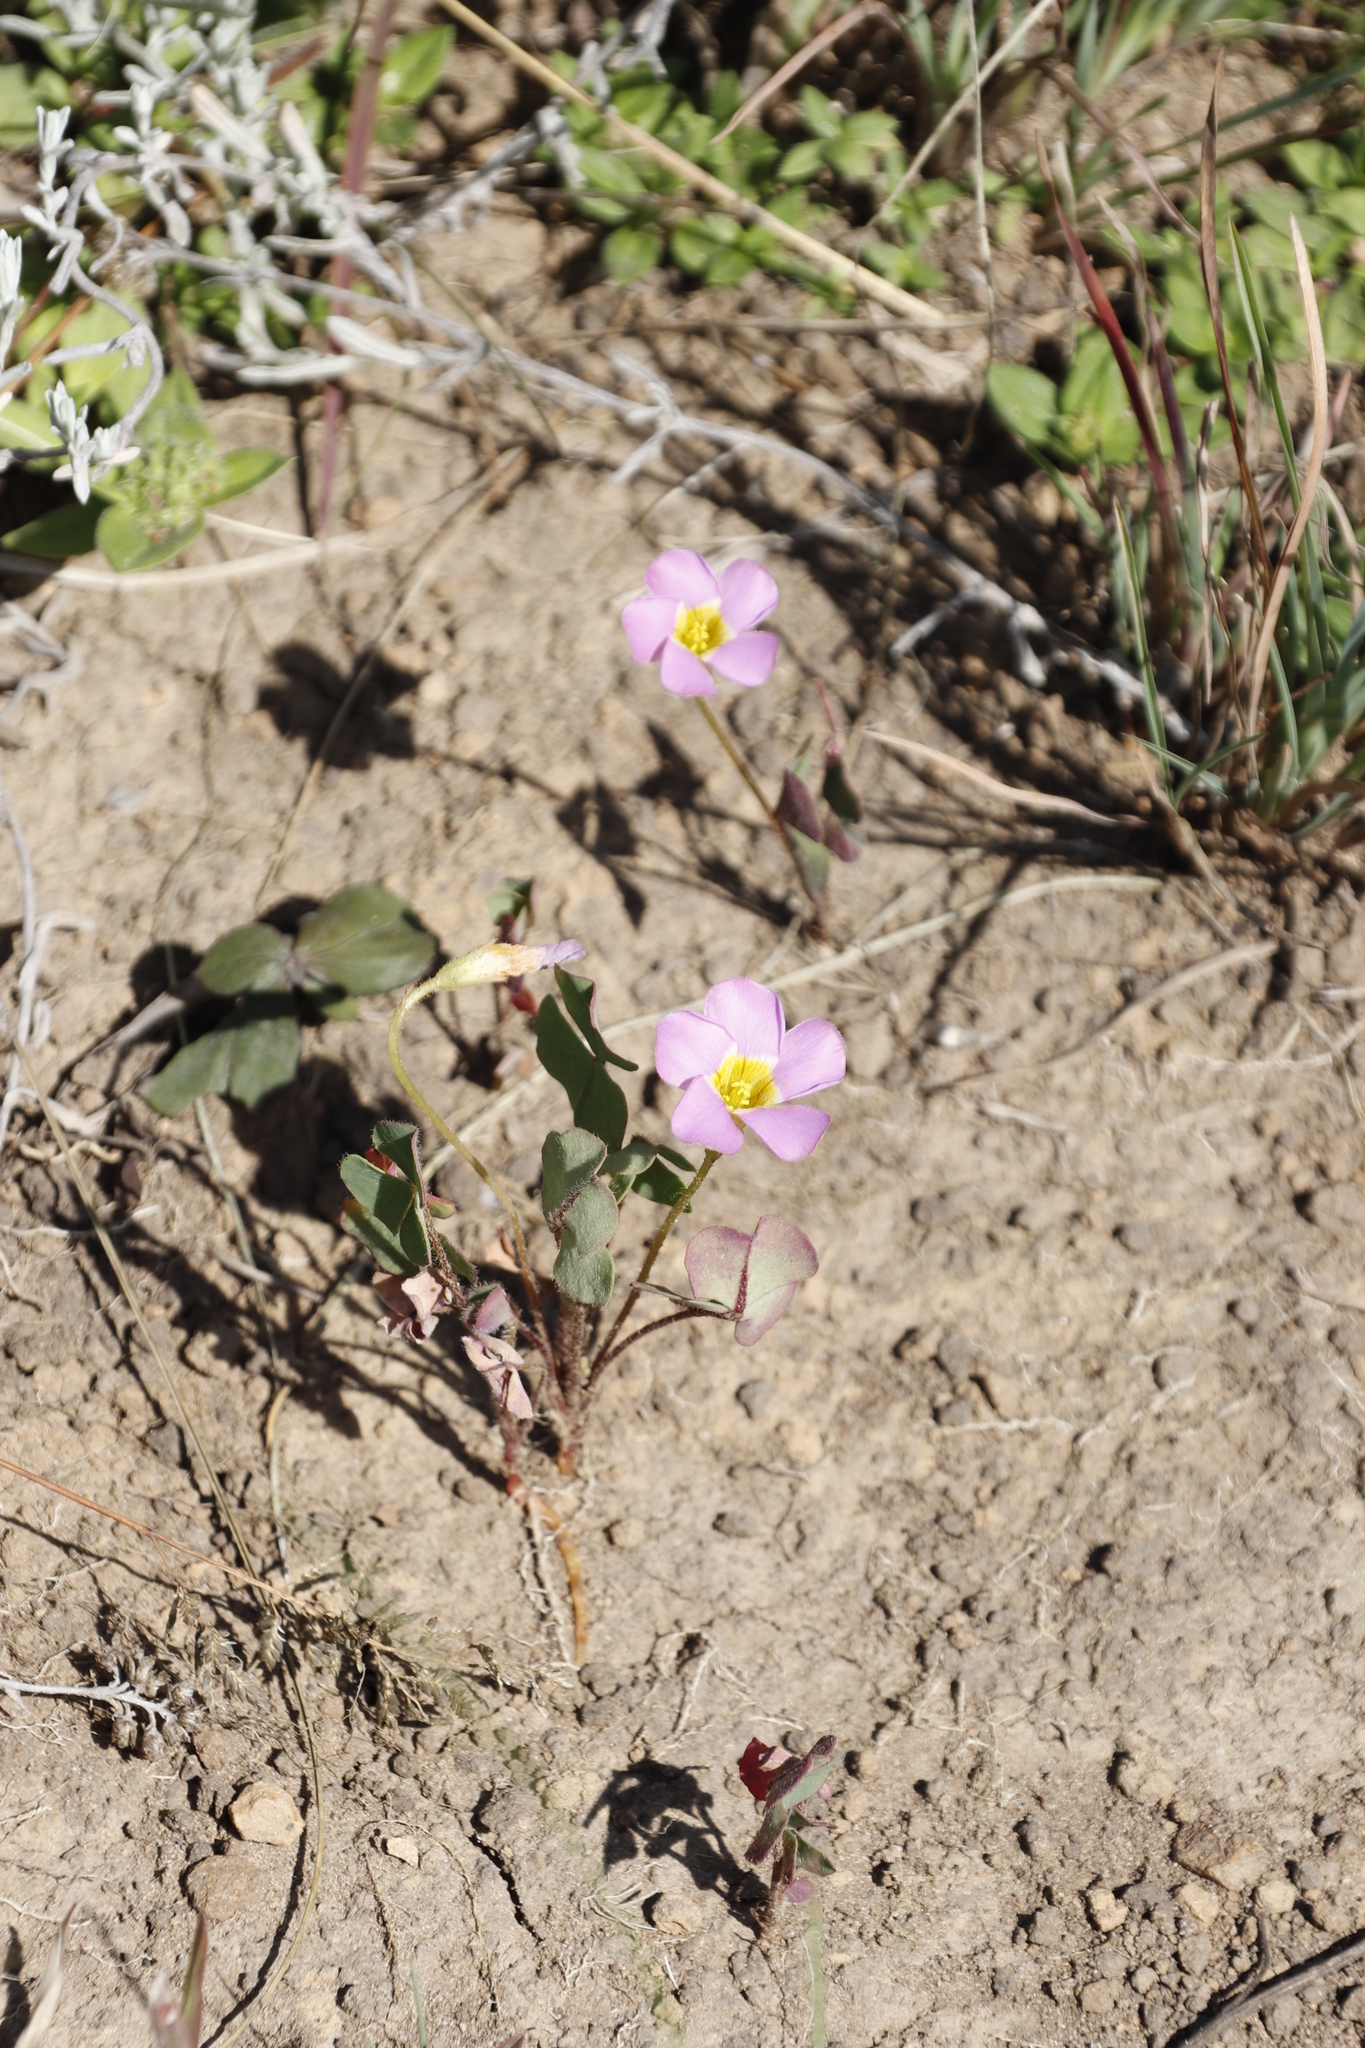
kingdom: Plantae
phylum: Tracheophyta
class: Magnoliopsida
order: Oxalidales
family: Oxalidaceae
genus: Oxalis
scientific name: Oxalis obliquifolia
